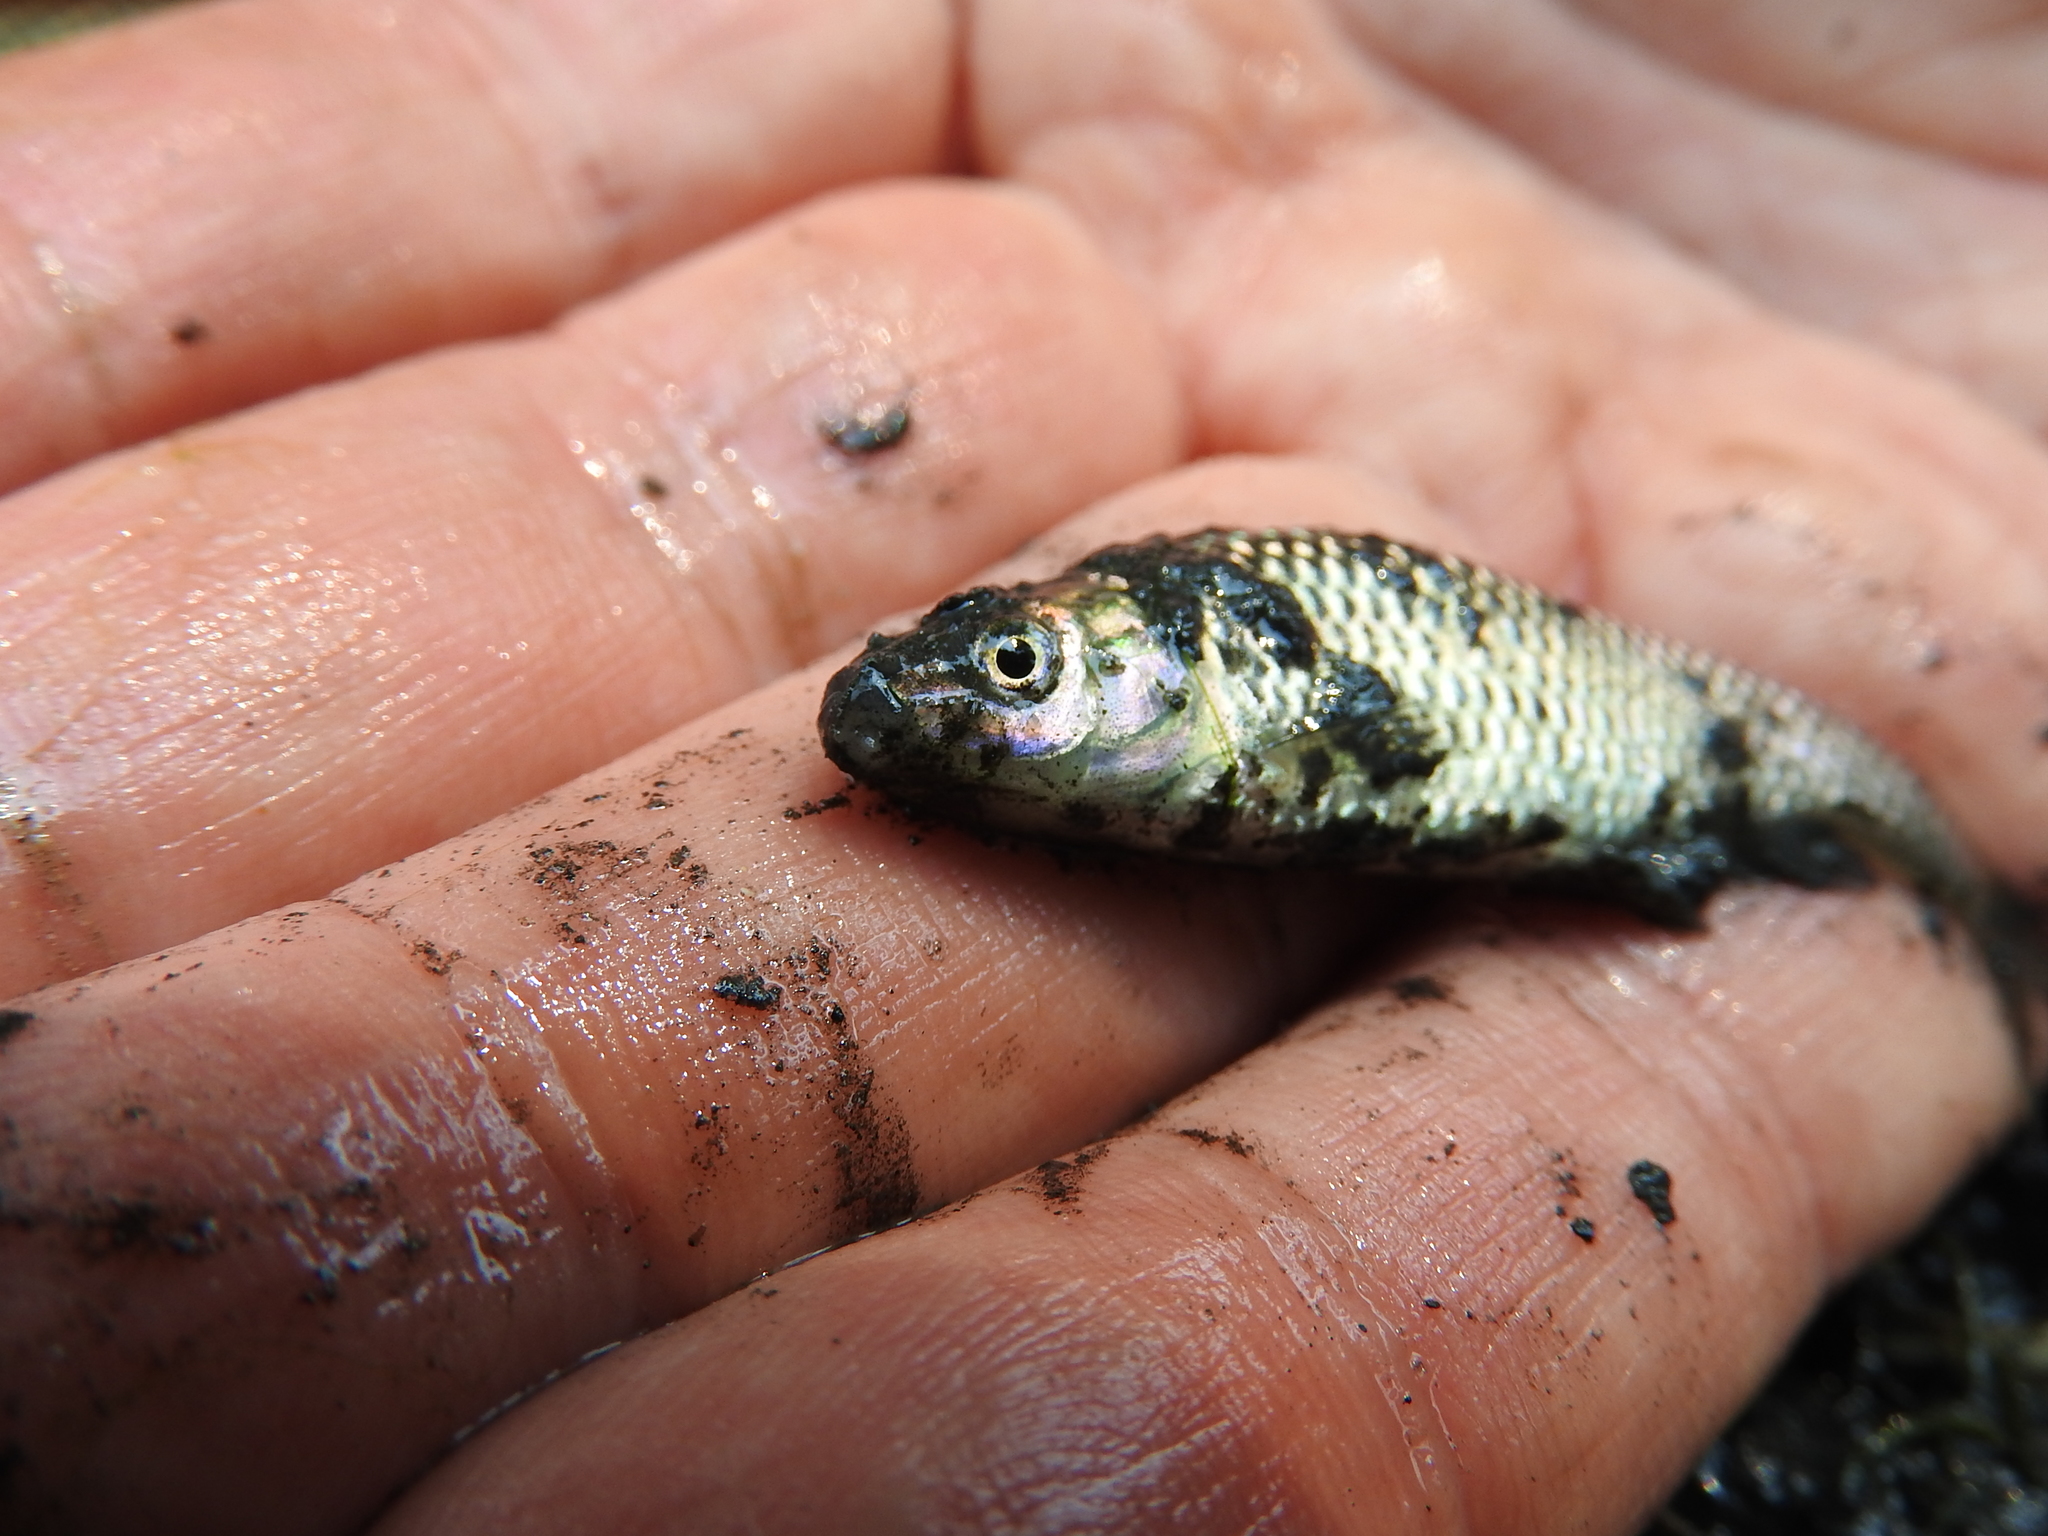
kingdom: Animalia
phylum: Chordata
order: Cypriniformes
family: Cyprinidae
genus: Pseudorasbora
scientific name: Pseudorasbora parva
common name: Topmouth gudgeon
